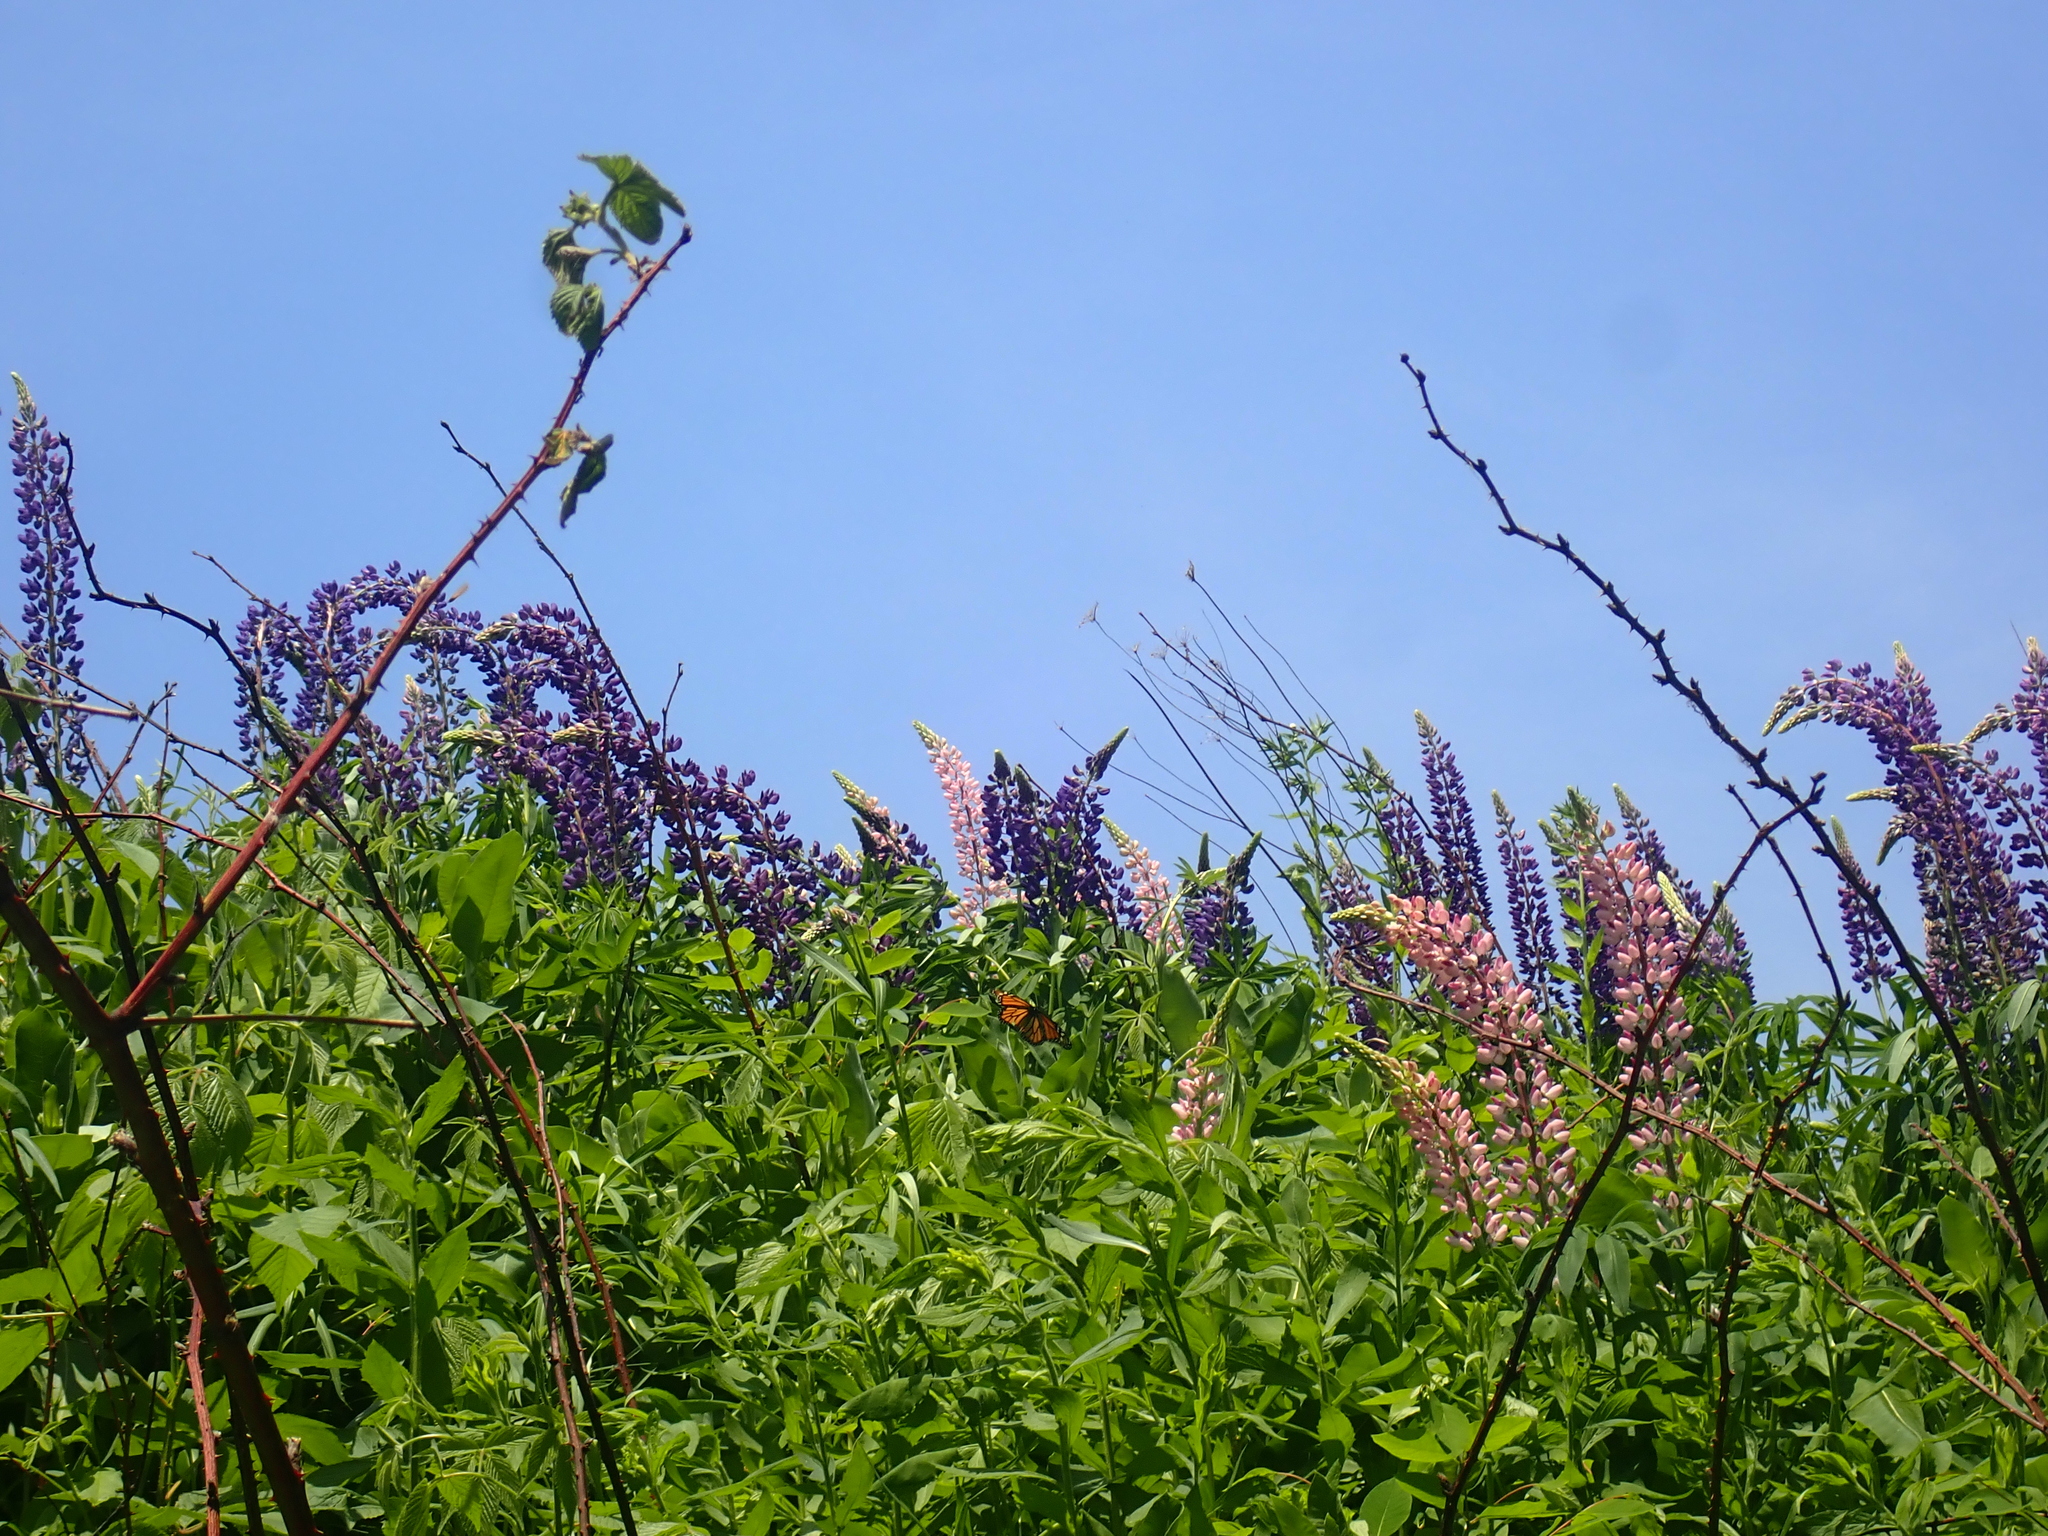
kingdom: Animalia
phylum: Arthropoda
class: Insecta
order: Lepidoptera
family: Nymphalidae
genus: Danaus
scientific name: Danaus plexippus
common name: Monarch
